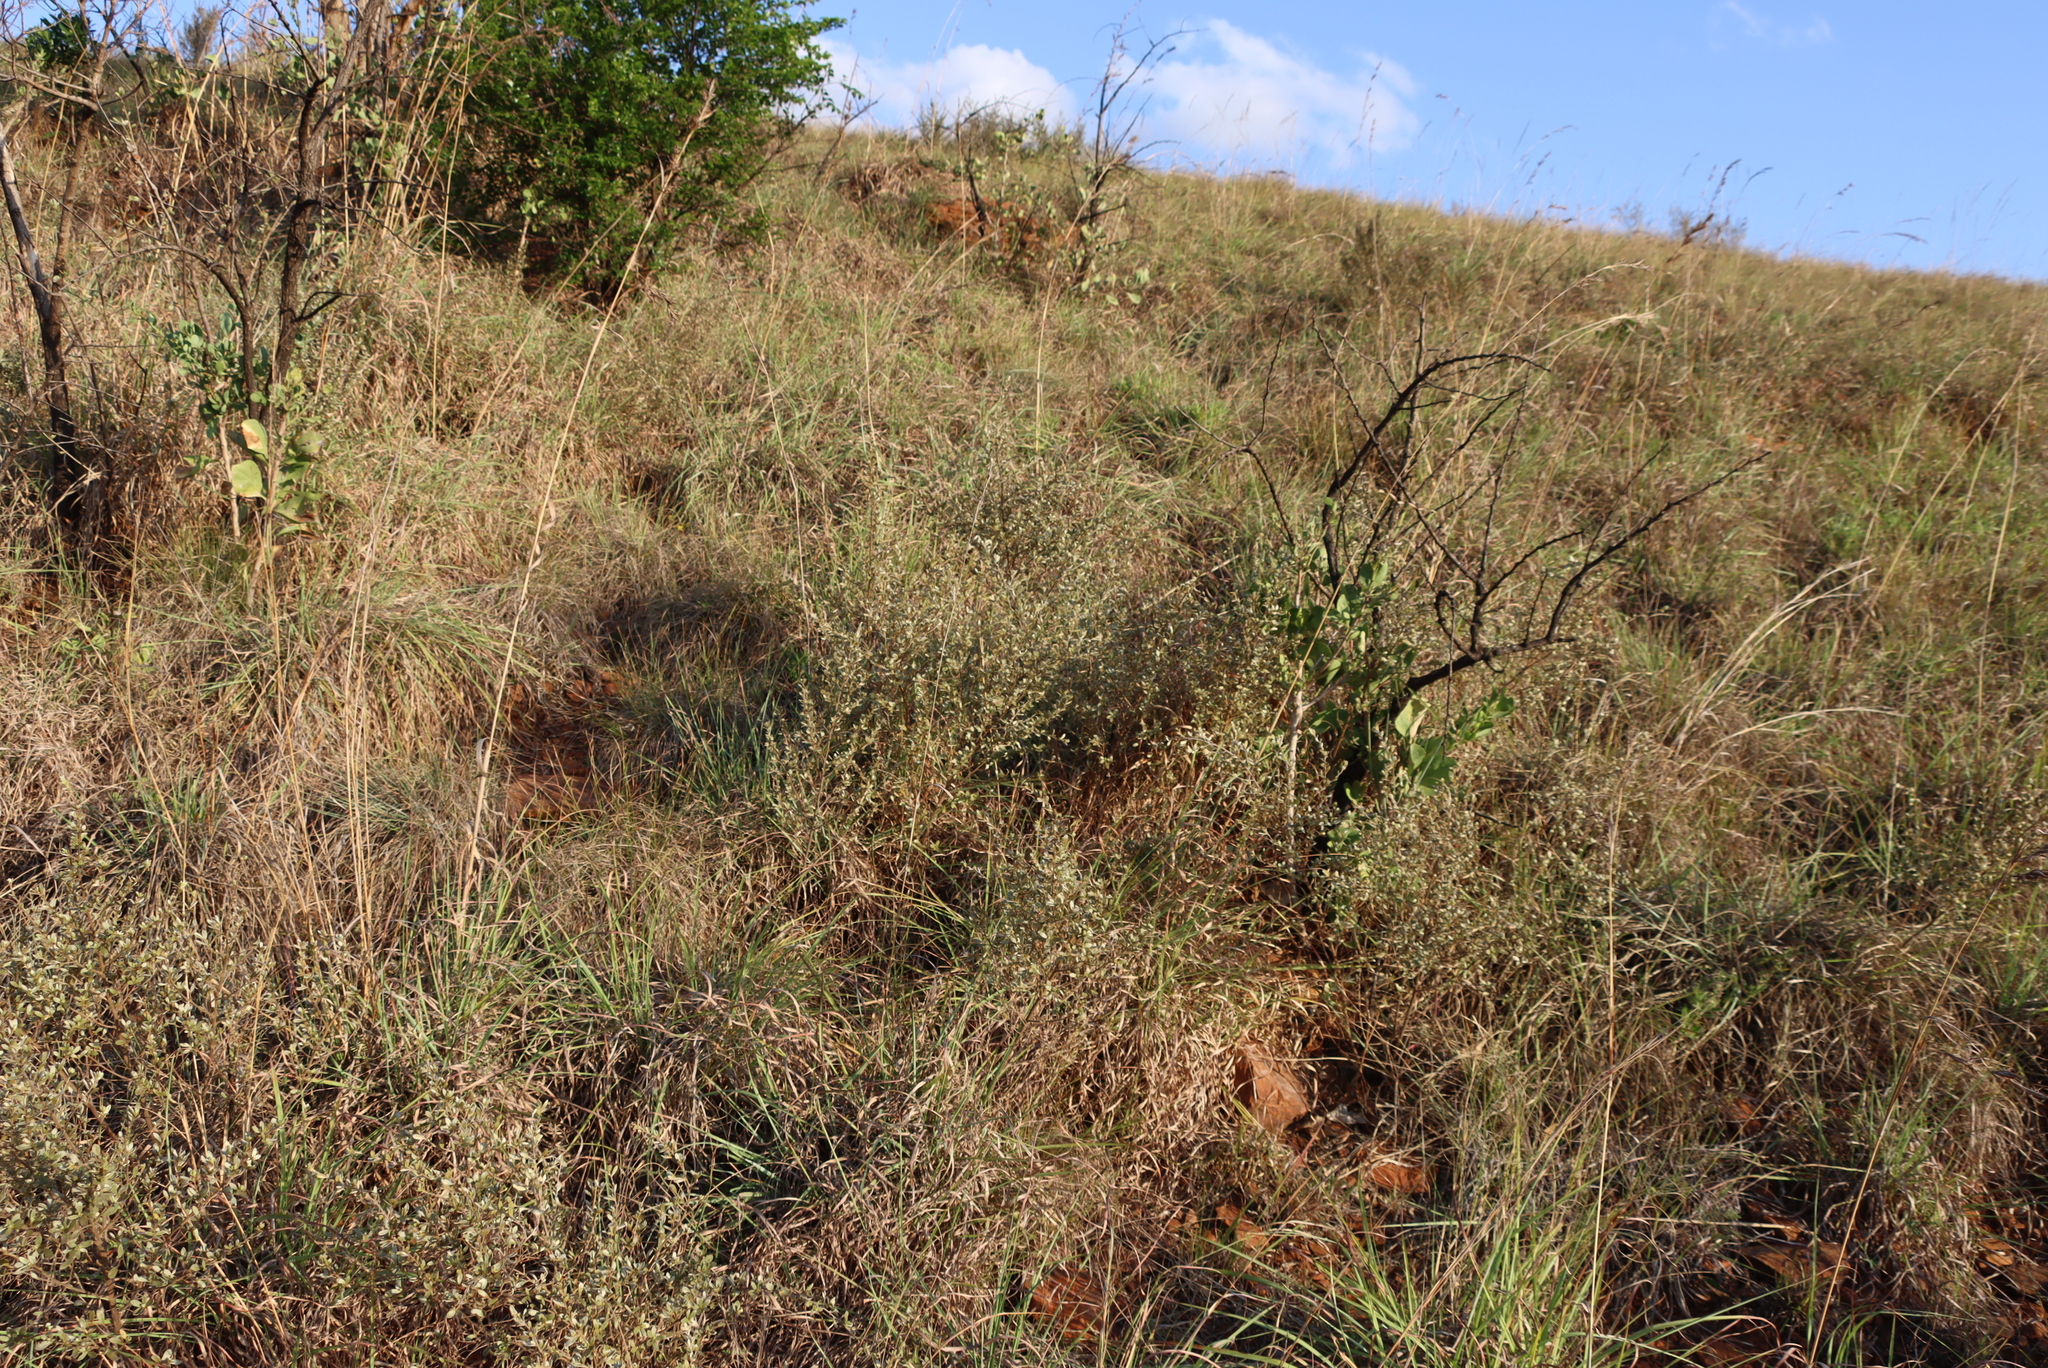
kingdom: Plantae
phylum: Tracheophyta
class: Magnoliopsida
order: Ericales
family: Ebenaceae
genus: Diospyros
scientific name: Diospyros pubescens
